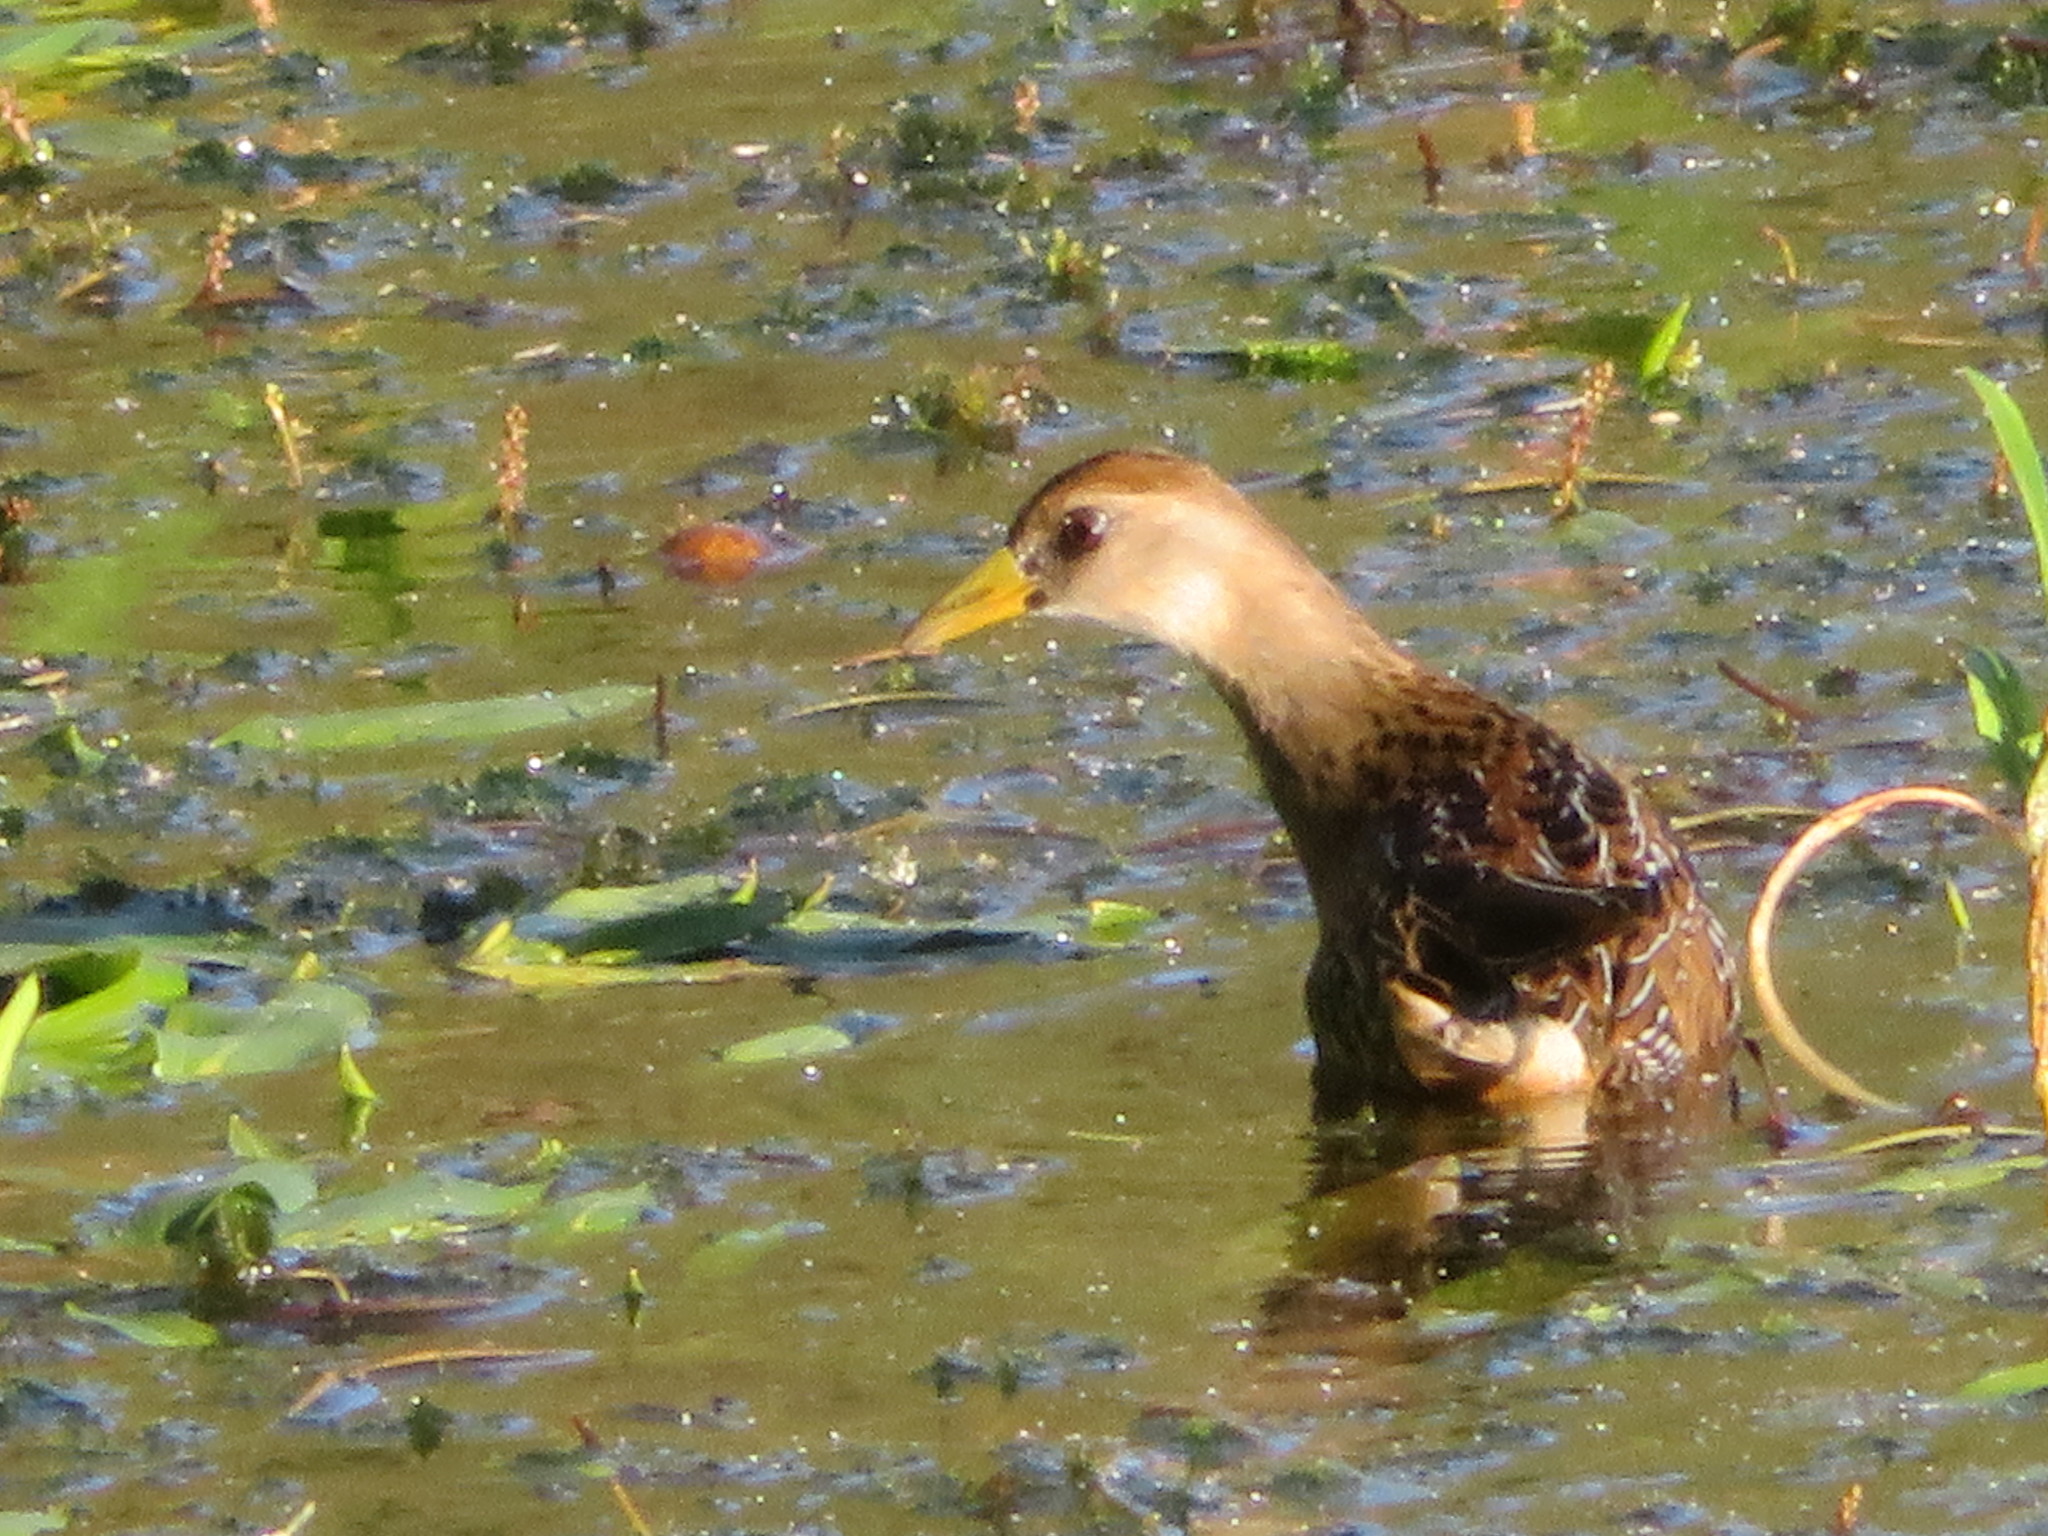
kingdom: Animalia
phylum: Chordata
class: Aves
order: Gruiformes
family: Rallidae
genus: Porzana
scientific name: Porzana carolina
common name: Sora
